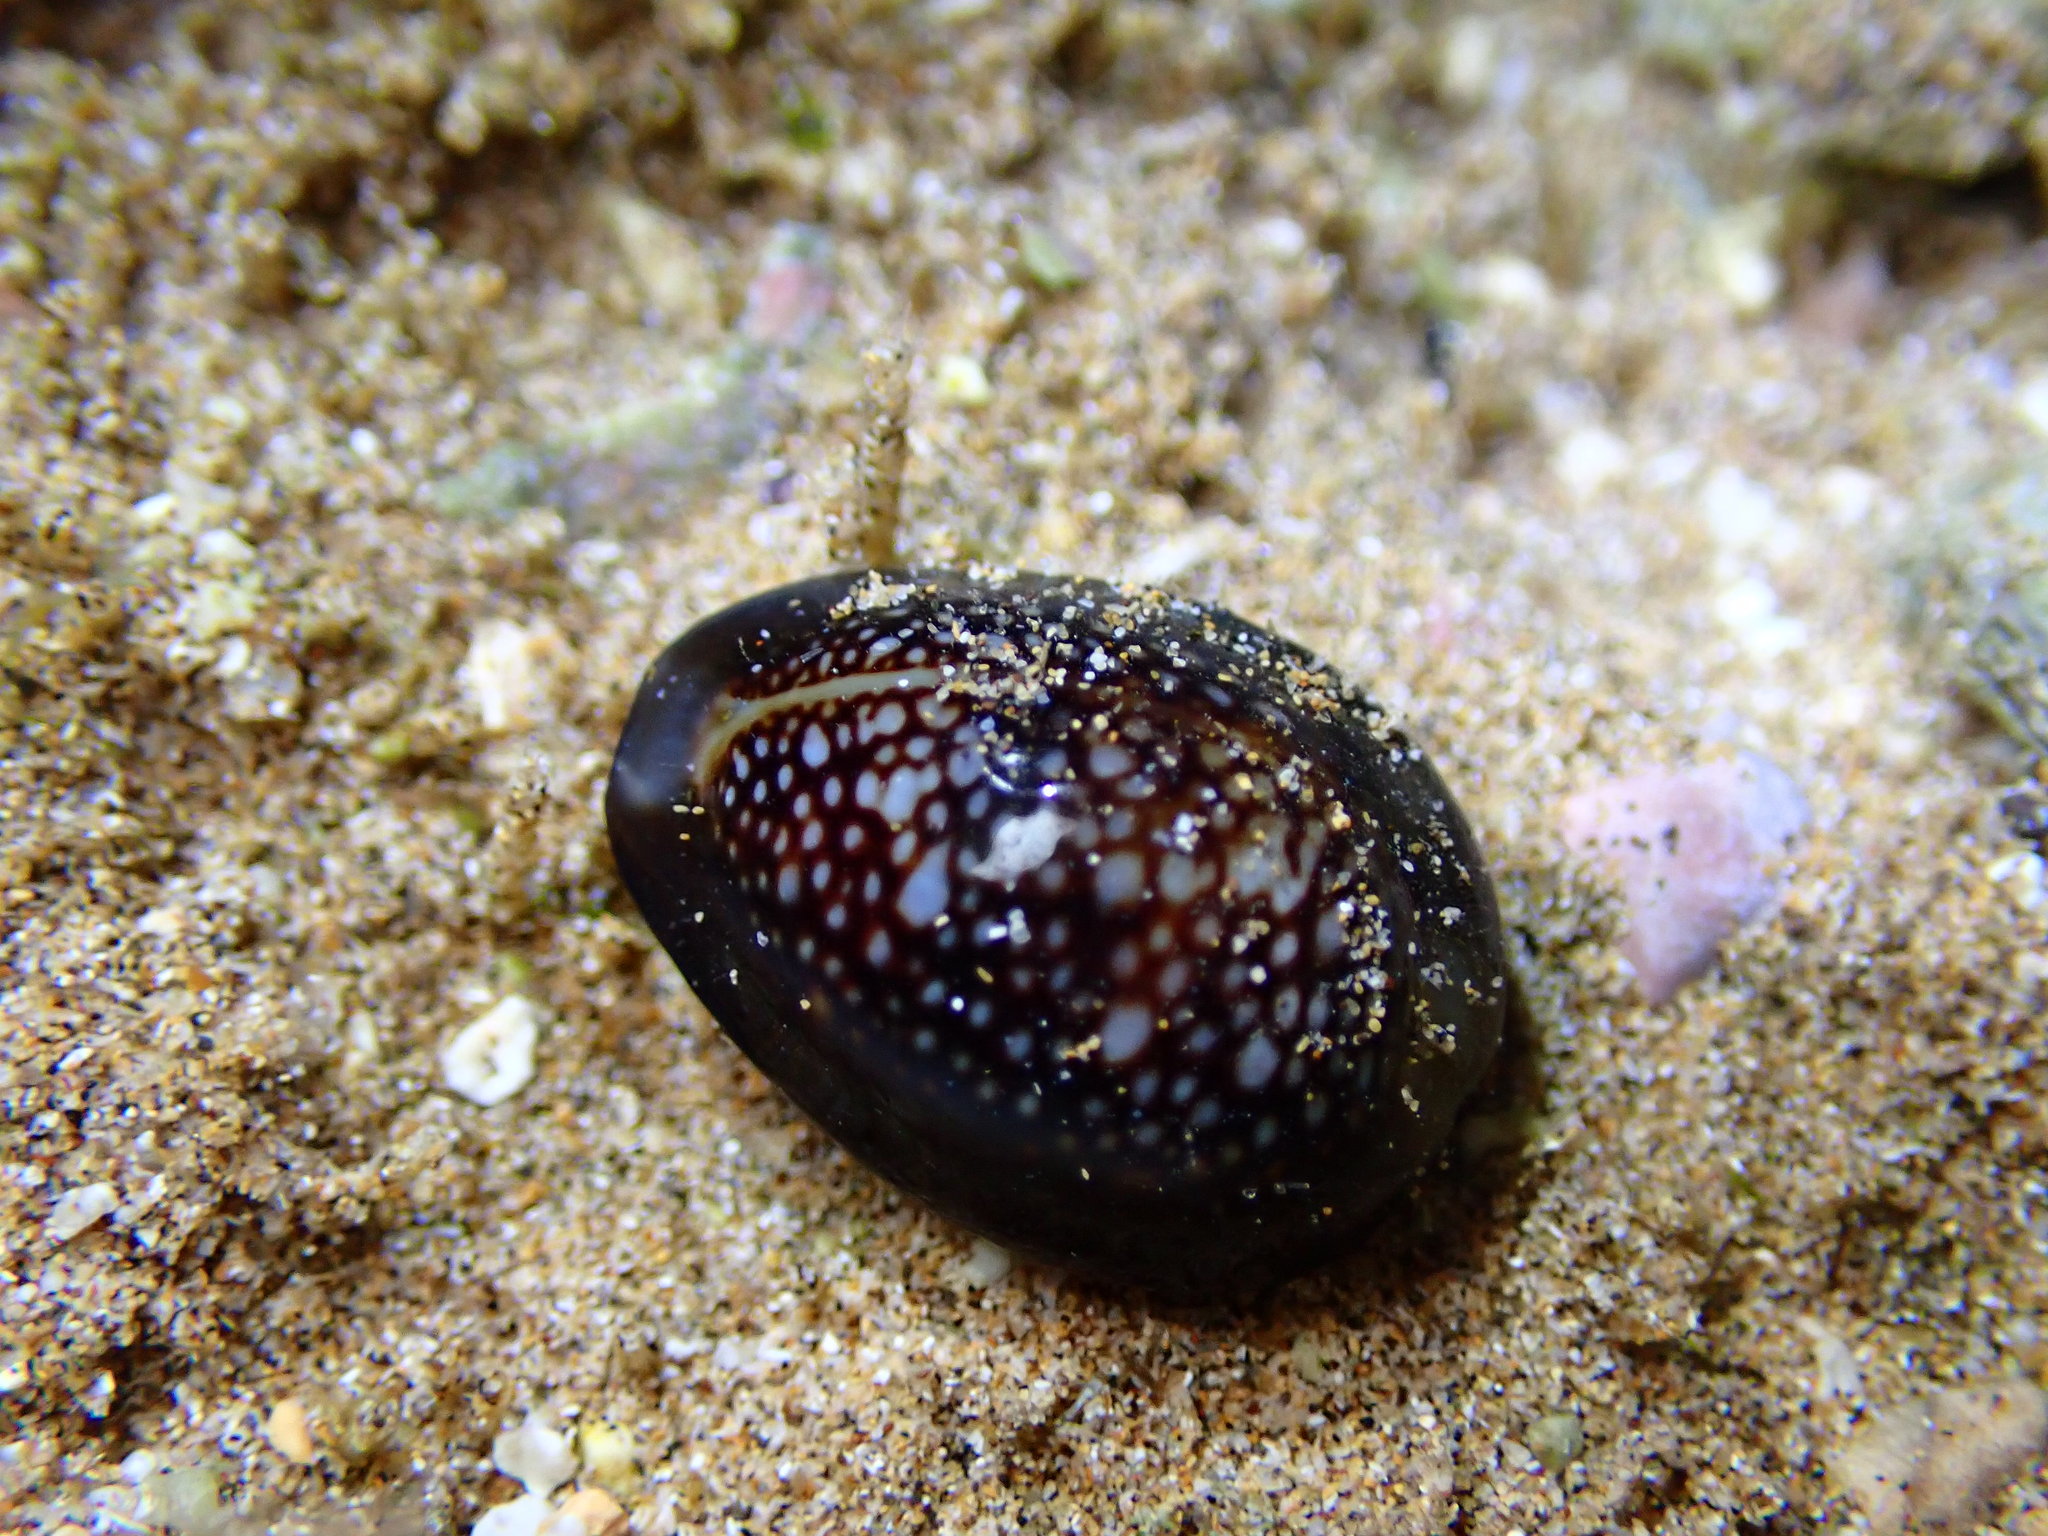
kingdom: Animalia
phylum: Mollusca
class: Gastropoda
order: Littorinimorpha
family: Cypraeidae
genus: Monetaria
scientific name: Monetaria caputophidii
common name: Snake's head cowry
